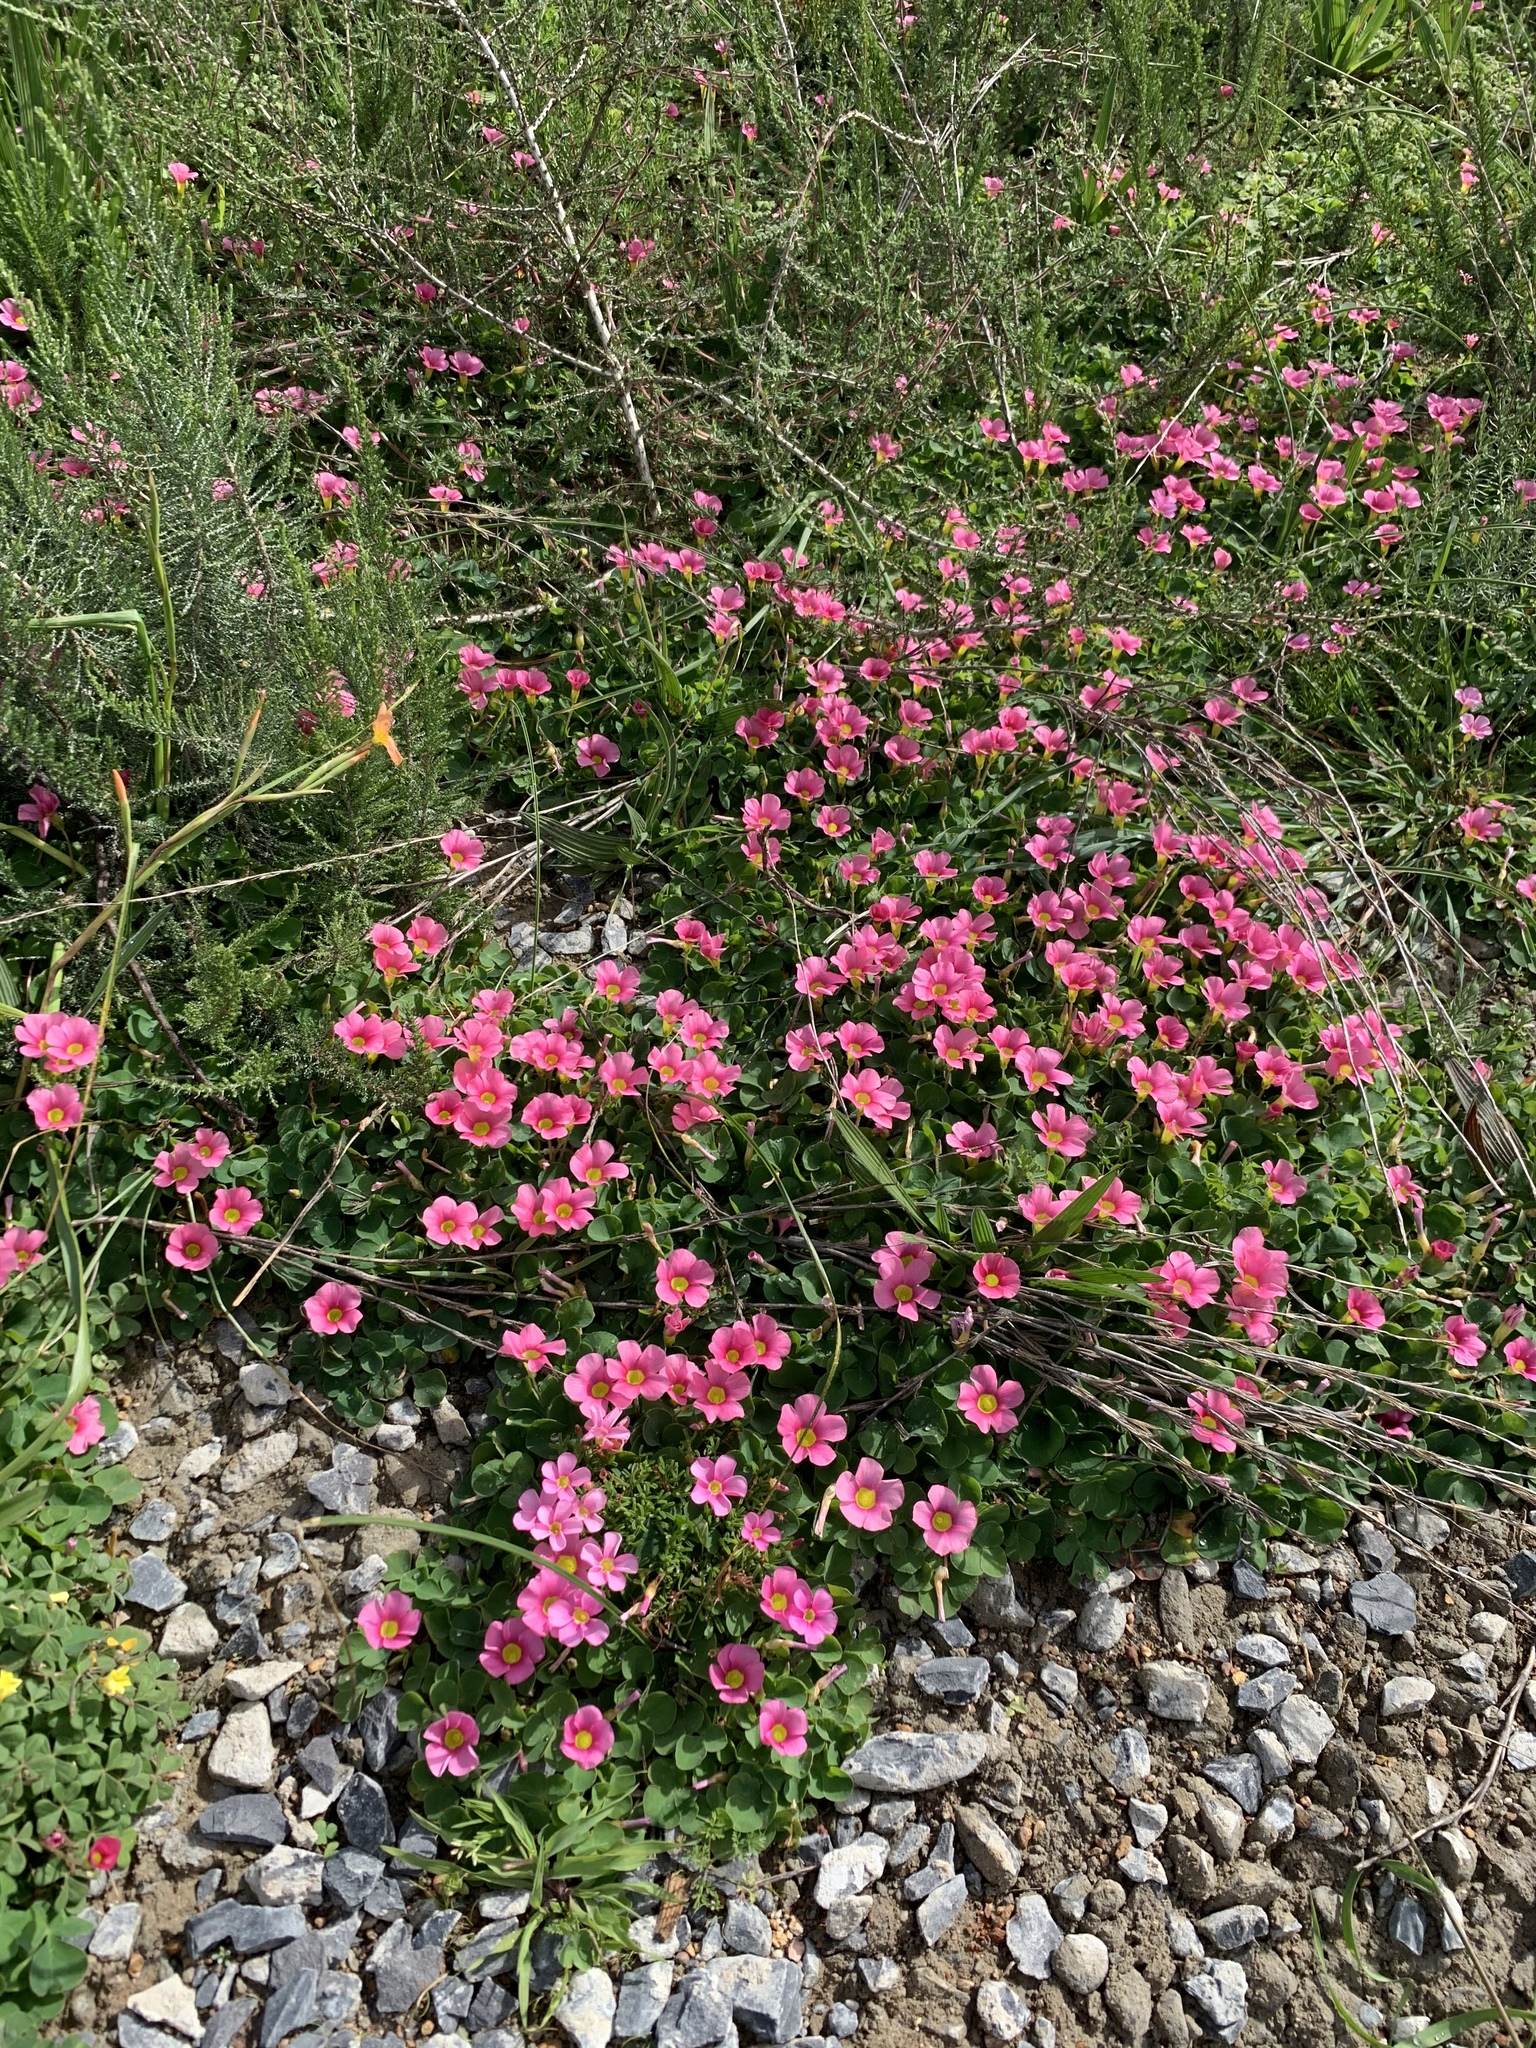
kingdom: Plantae
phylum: Tracheophyta
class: Magnoliopsida
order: Oxalidales
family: Oxalidaceae
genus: Oxalis
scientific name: Oxalis purpurea
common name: Purple woodsorrel
